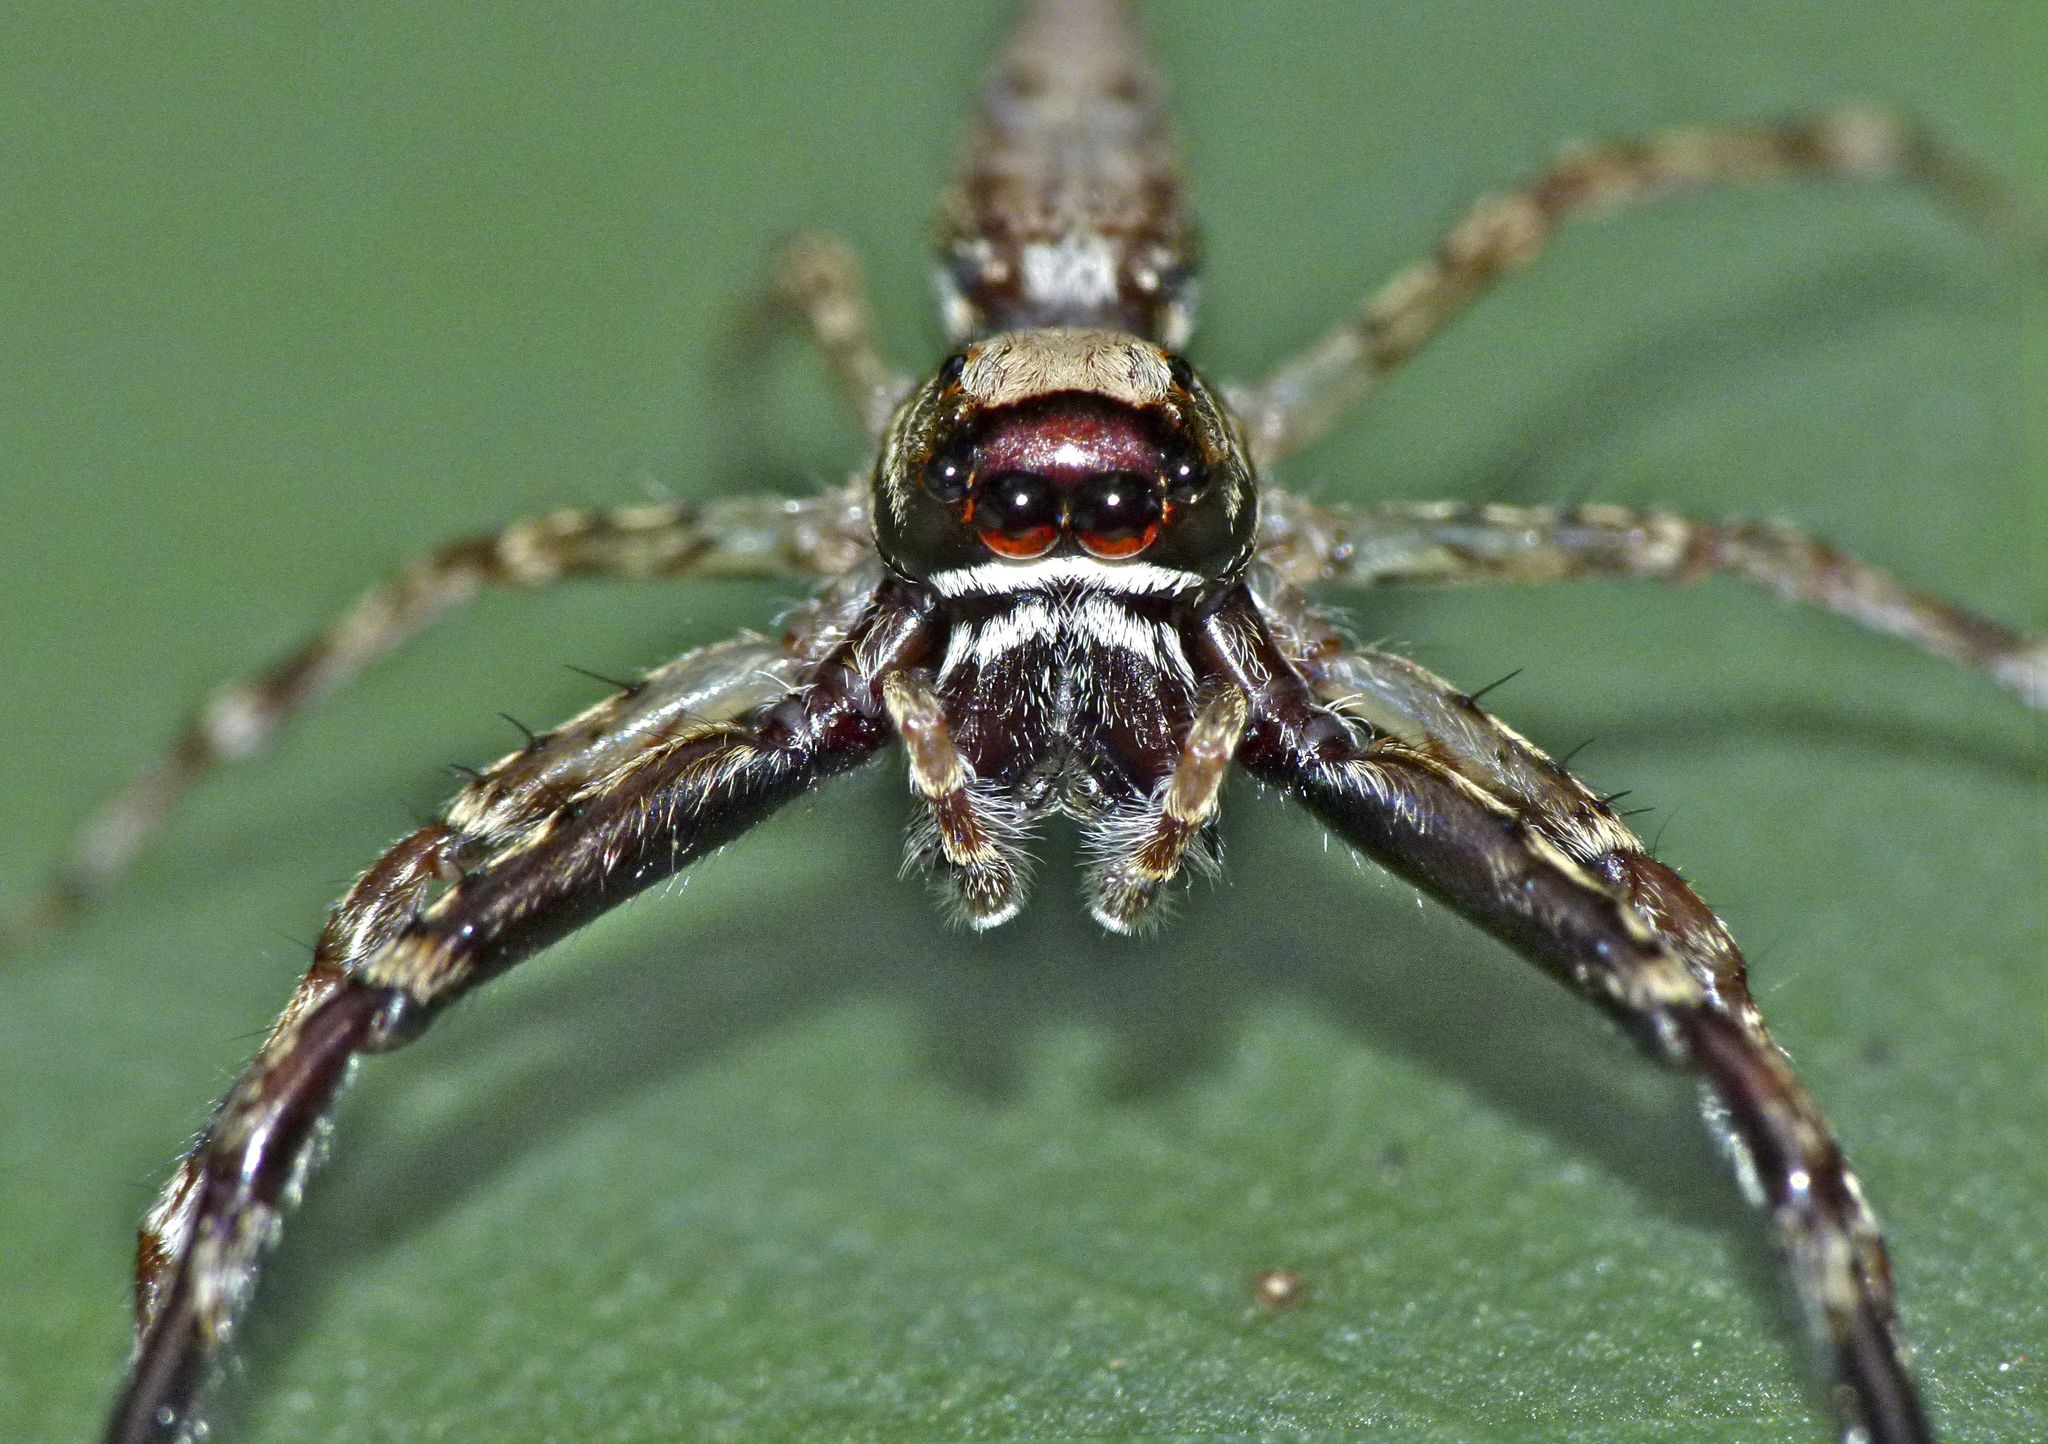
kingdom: Animalia
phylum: Arthropoda
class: Arachnida
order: Araneae
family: Salticidae
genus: Helpis
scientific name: Helpis minitabunda
